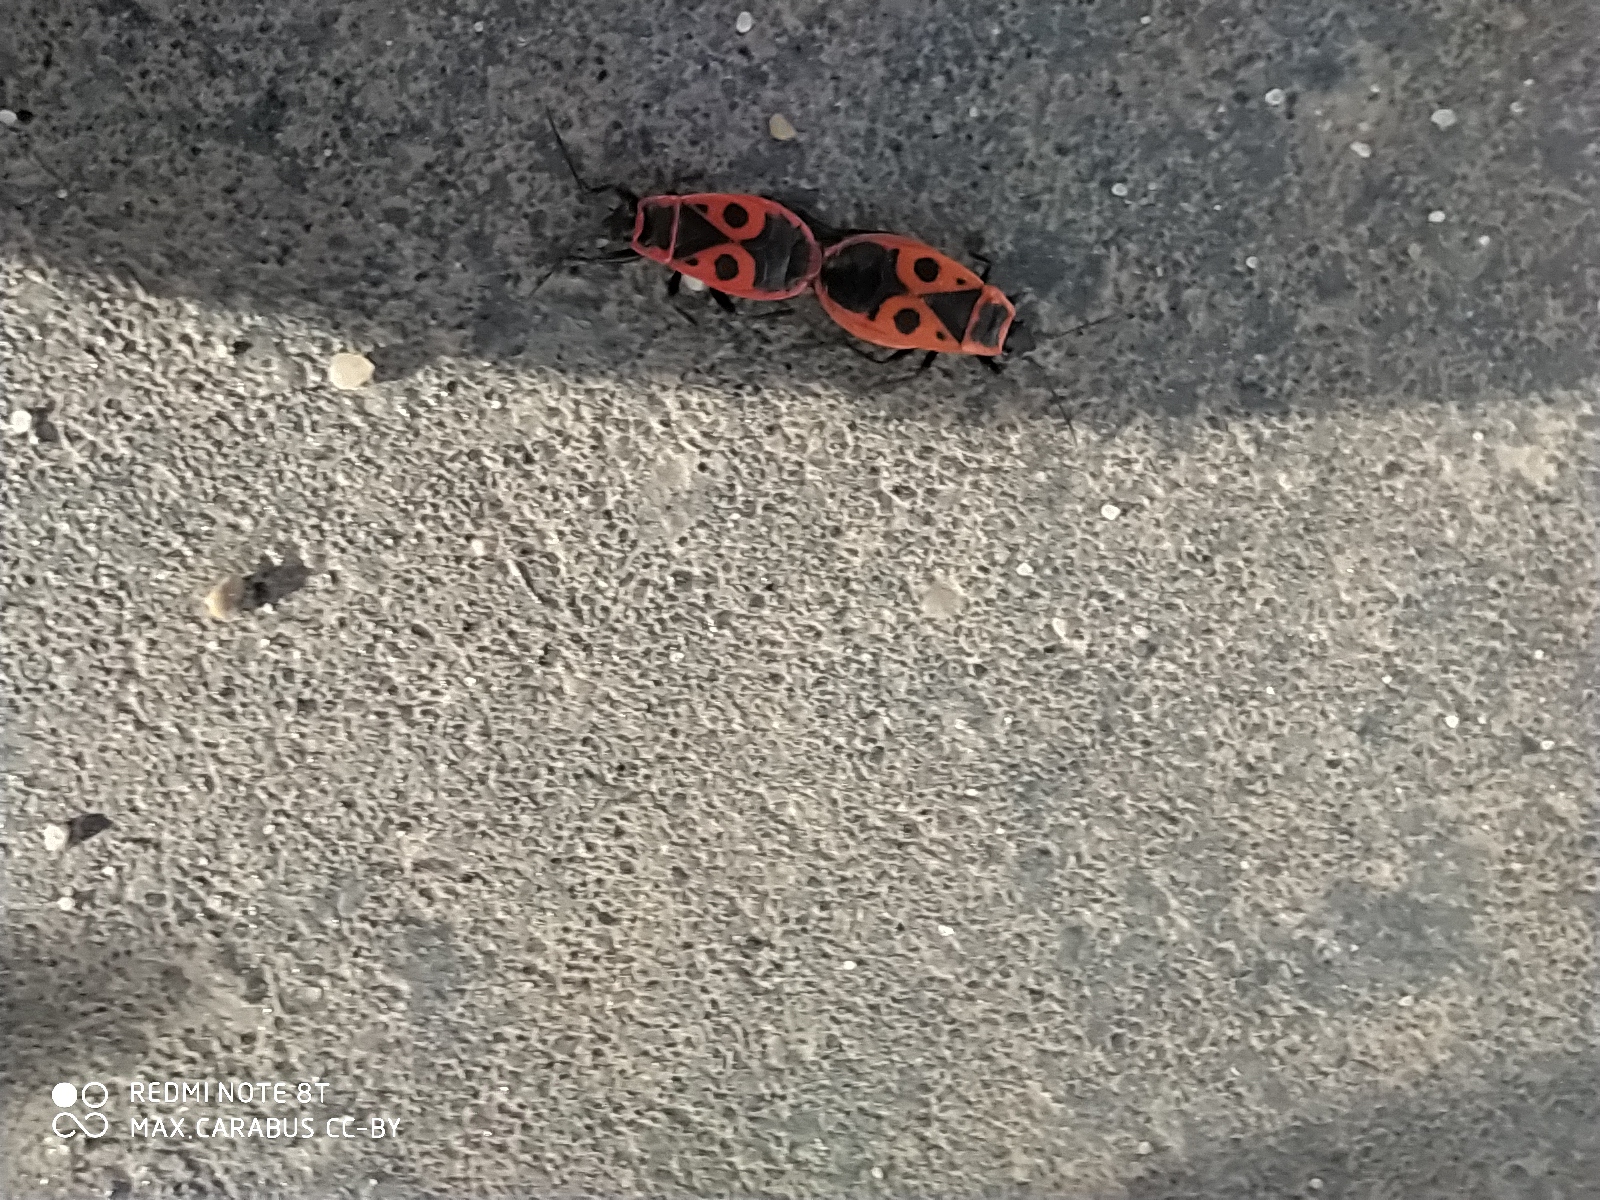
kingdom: Animalia
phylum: Arthropoda
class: Insecta
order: Hemiptera
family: Pyrrhocoridae
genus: Pyrrhocoris
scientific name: Pyrrhocoris apterus
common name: Firebug
